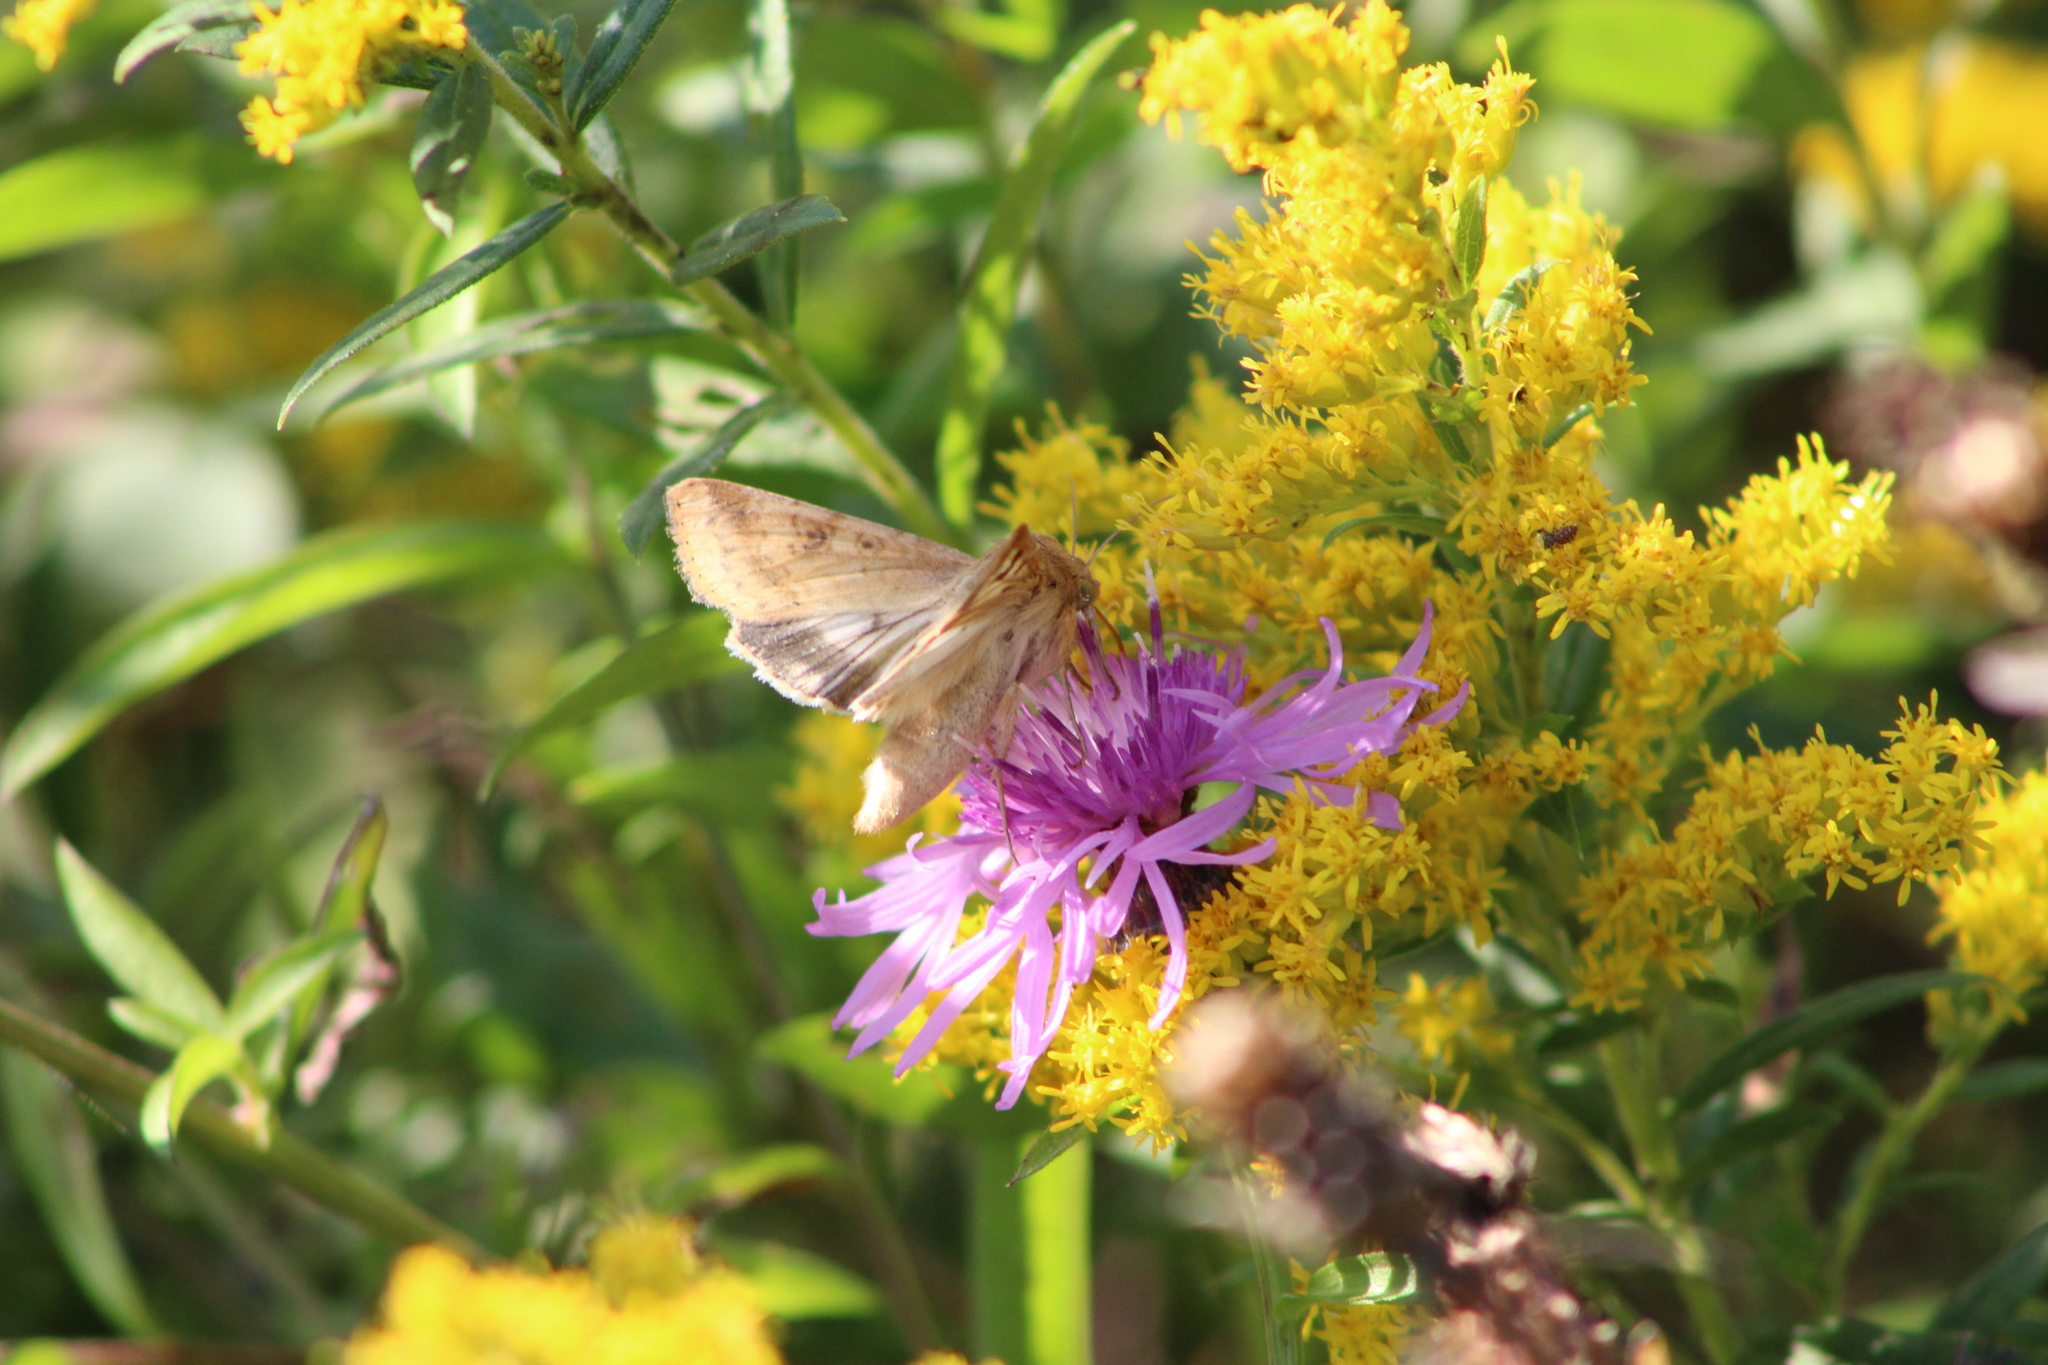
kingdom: Animalia
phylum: Arthropoda
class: Insecta
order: Lepidoptera
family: Noctuidae
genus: Helicoverpa
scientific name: Helicoverpa zea
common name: Bollworm
